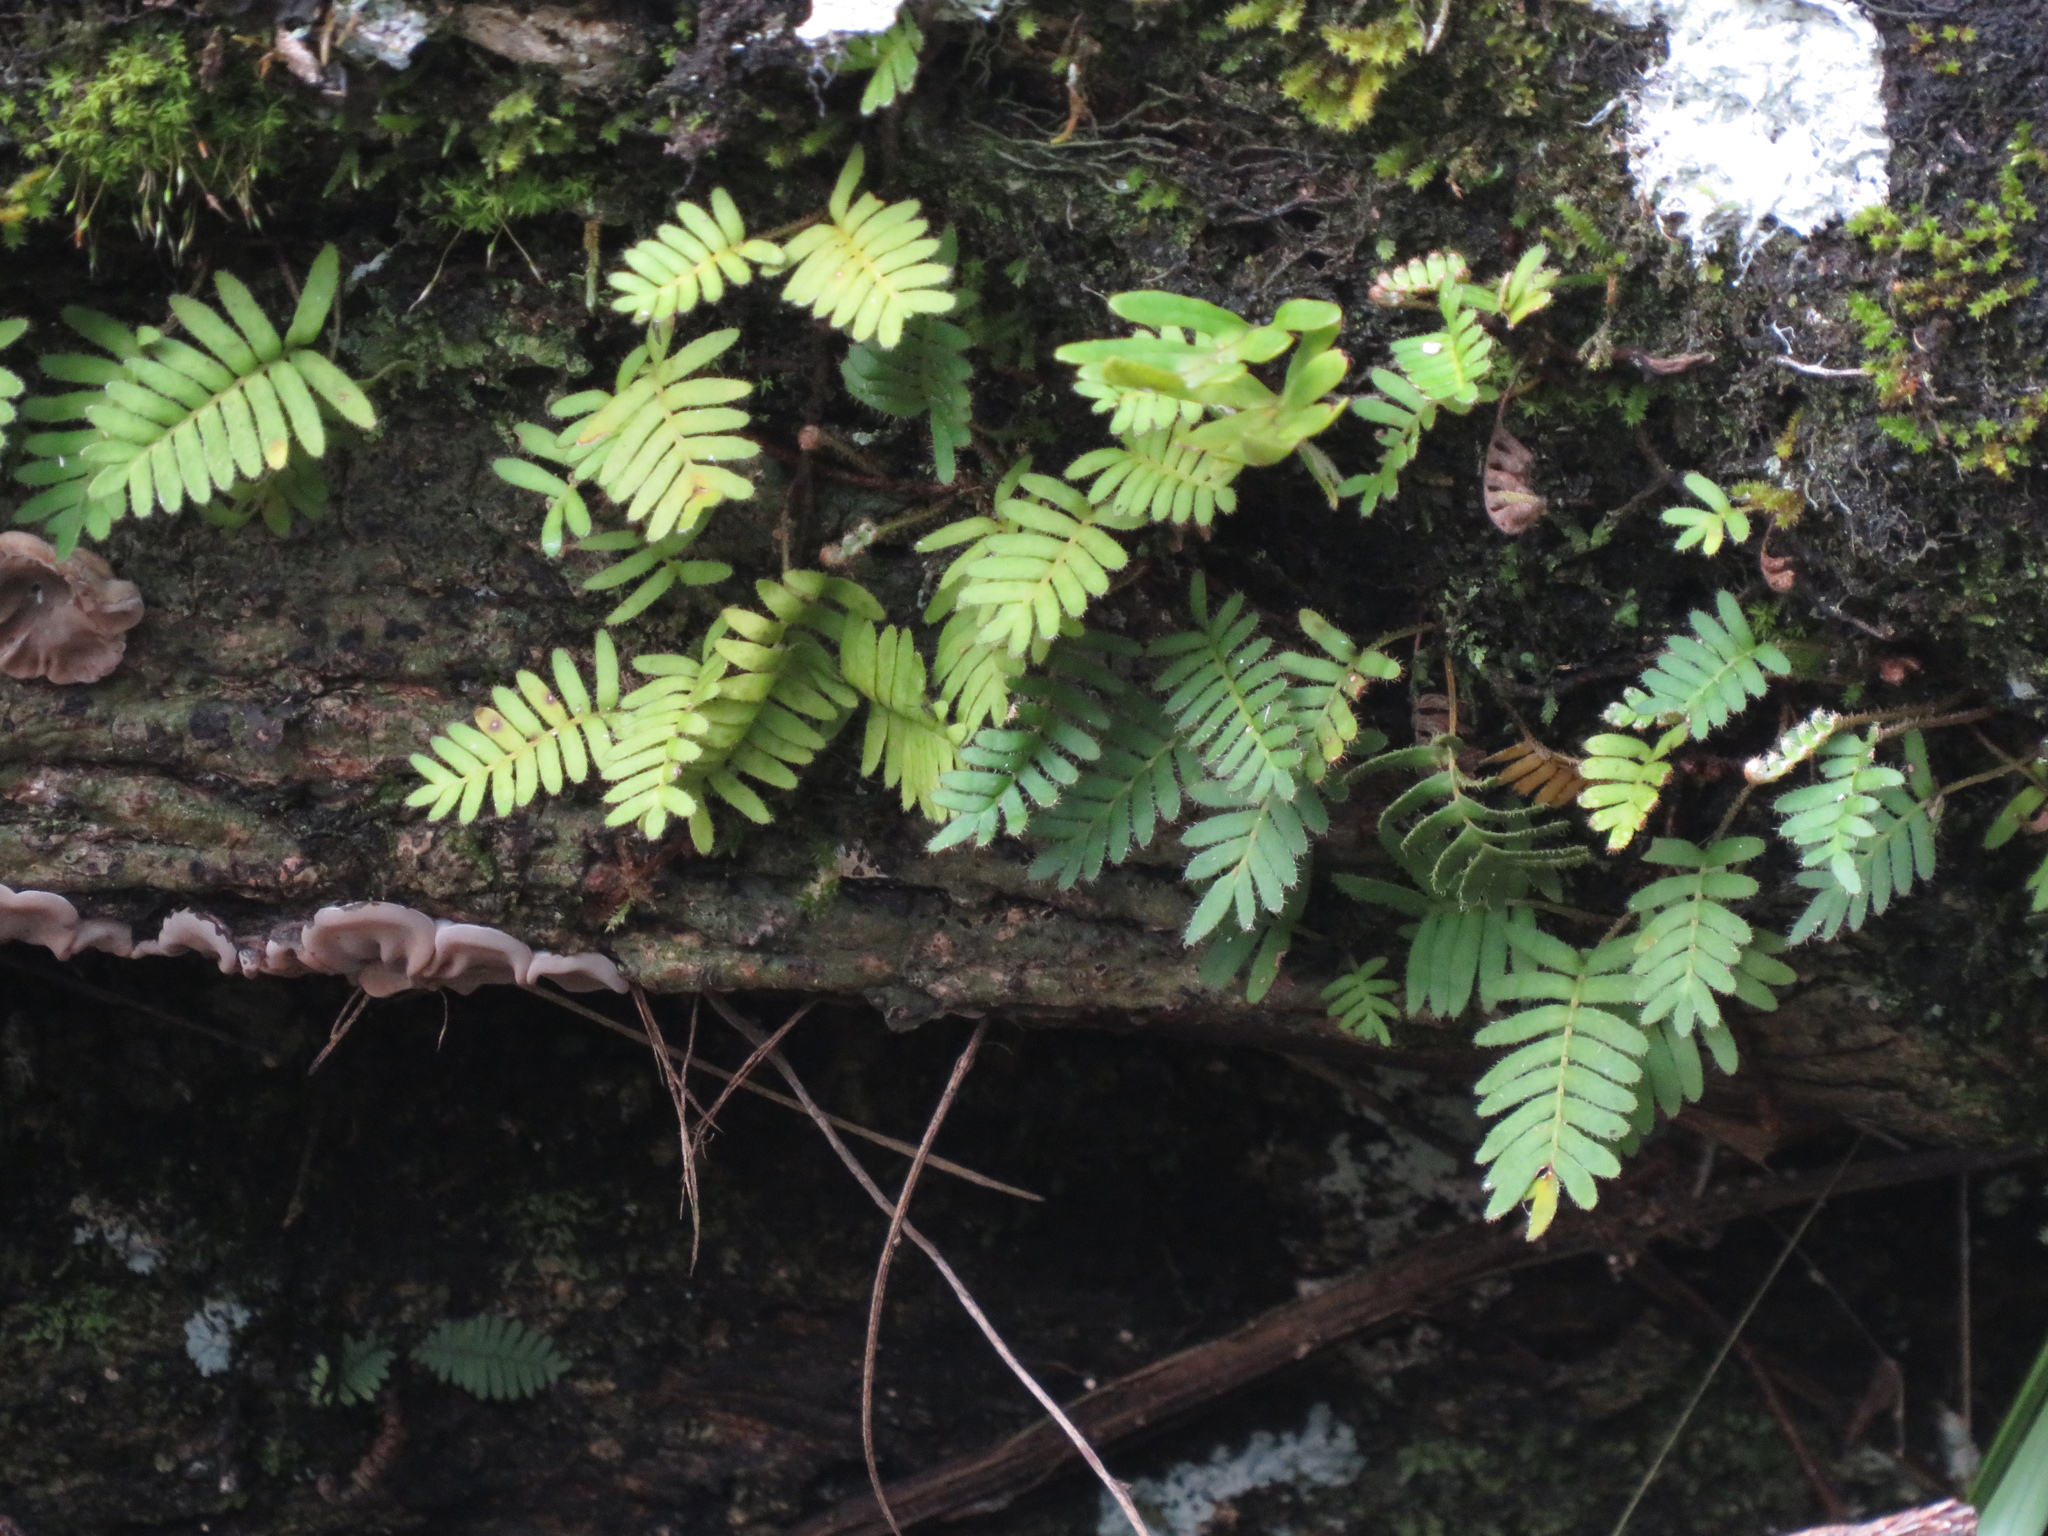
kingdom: Plantae
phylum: Tracheophyta
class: Polypodiopsida
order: Polypodiales
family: Polypodiaceae
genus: Pleopeltis
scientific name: Pleopeltis minima
